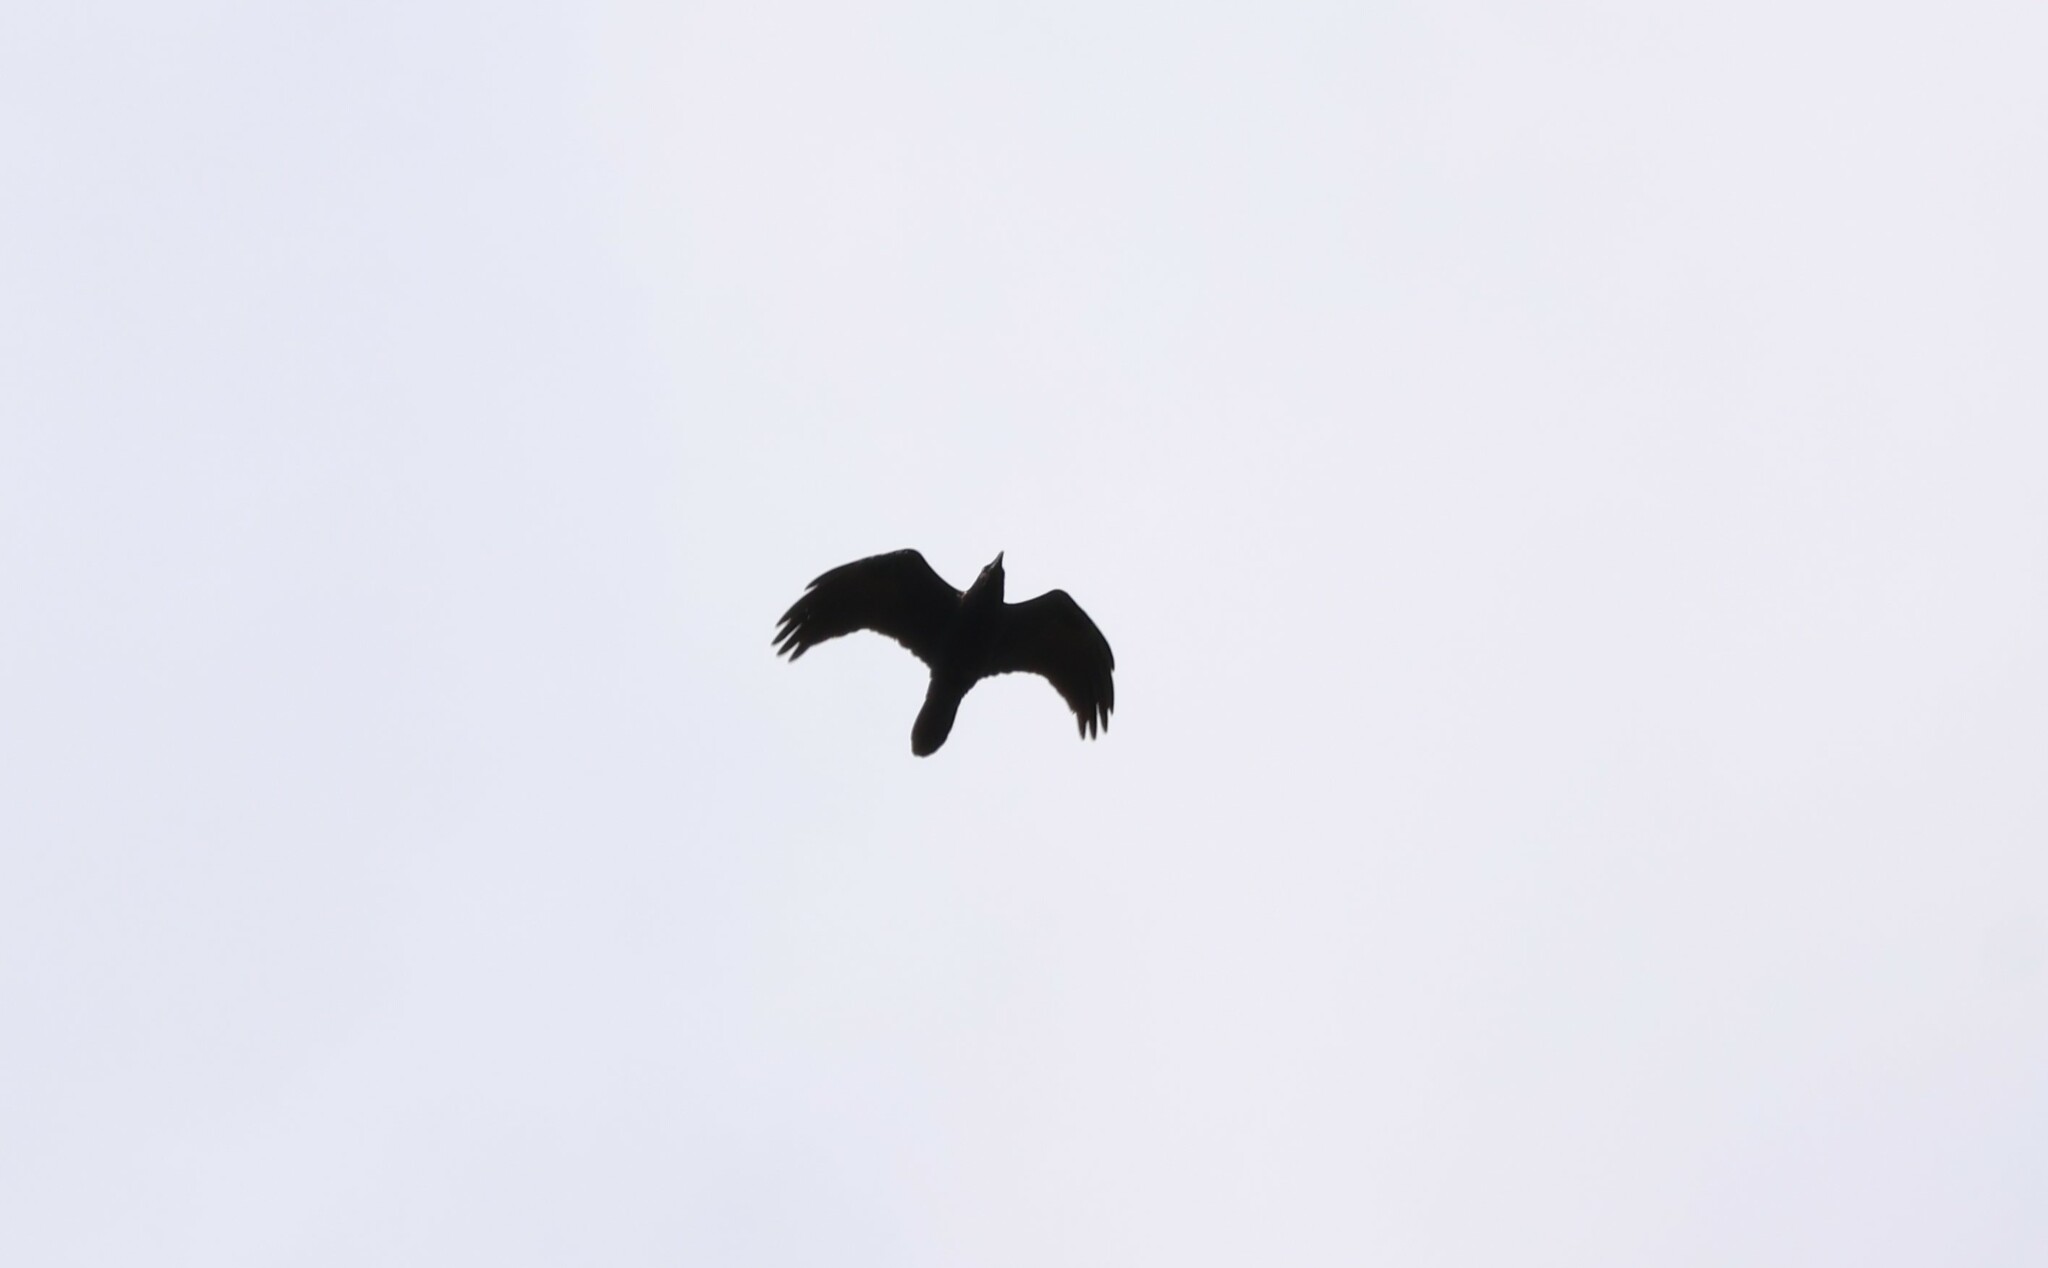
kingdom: Animalia
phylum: Chordata
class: Aves
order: Passeriformes
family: Corvidae
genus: Corvus
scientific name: Corvus corax
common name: Common raven
